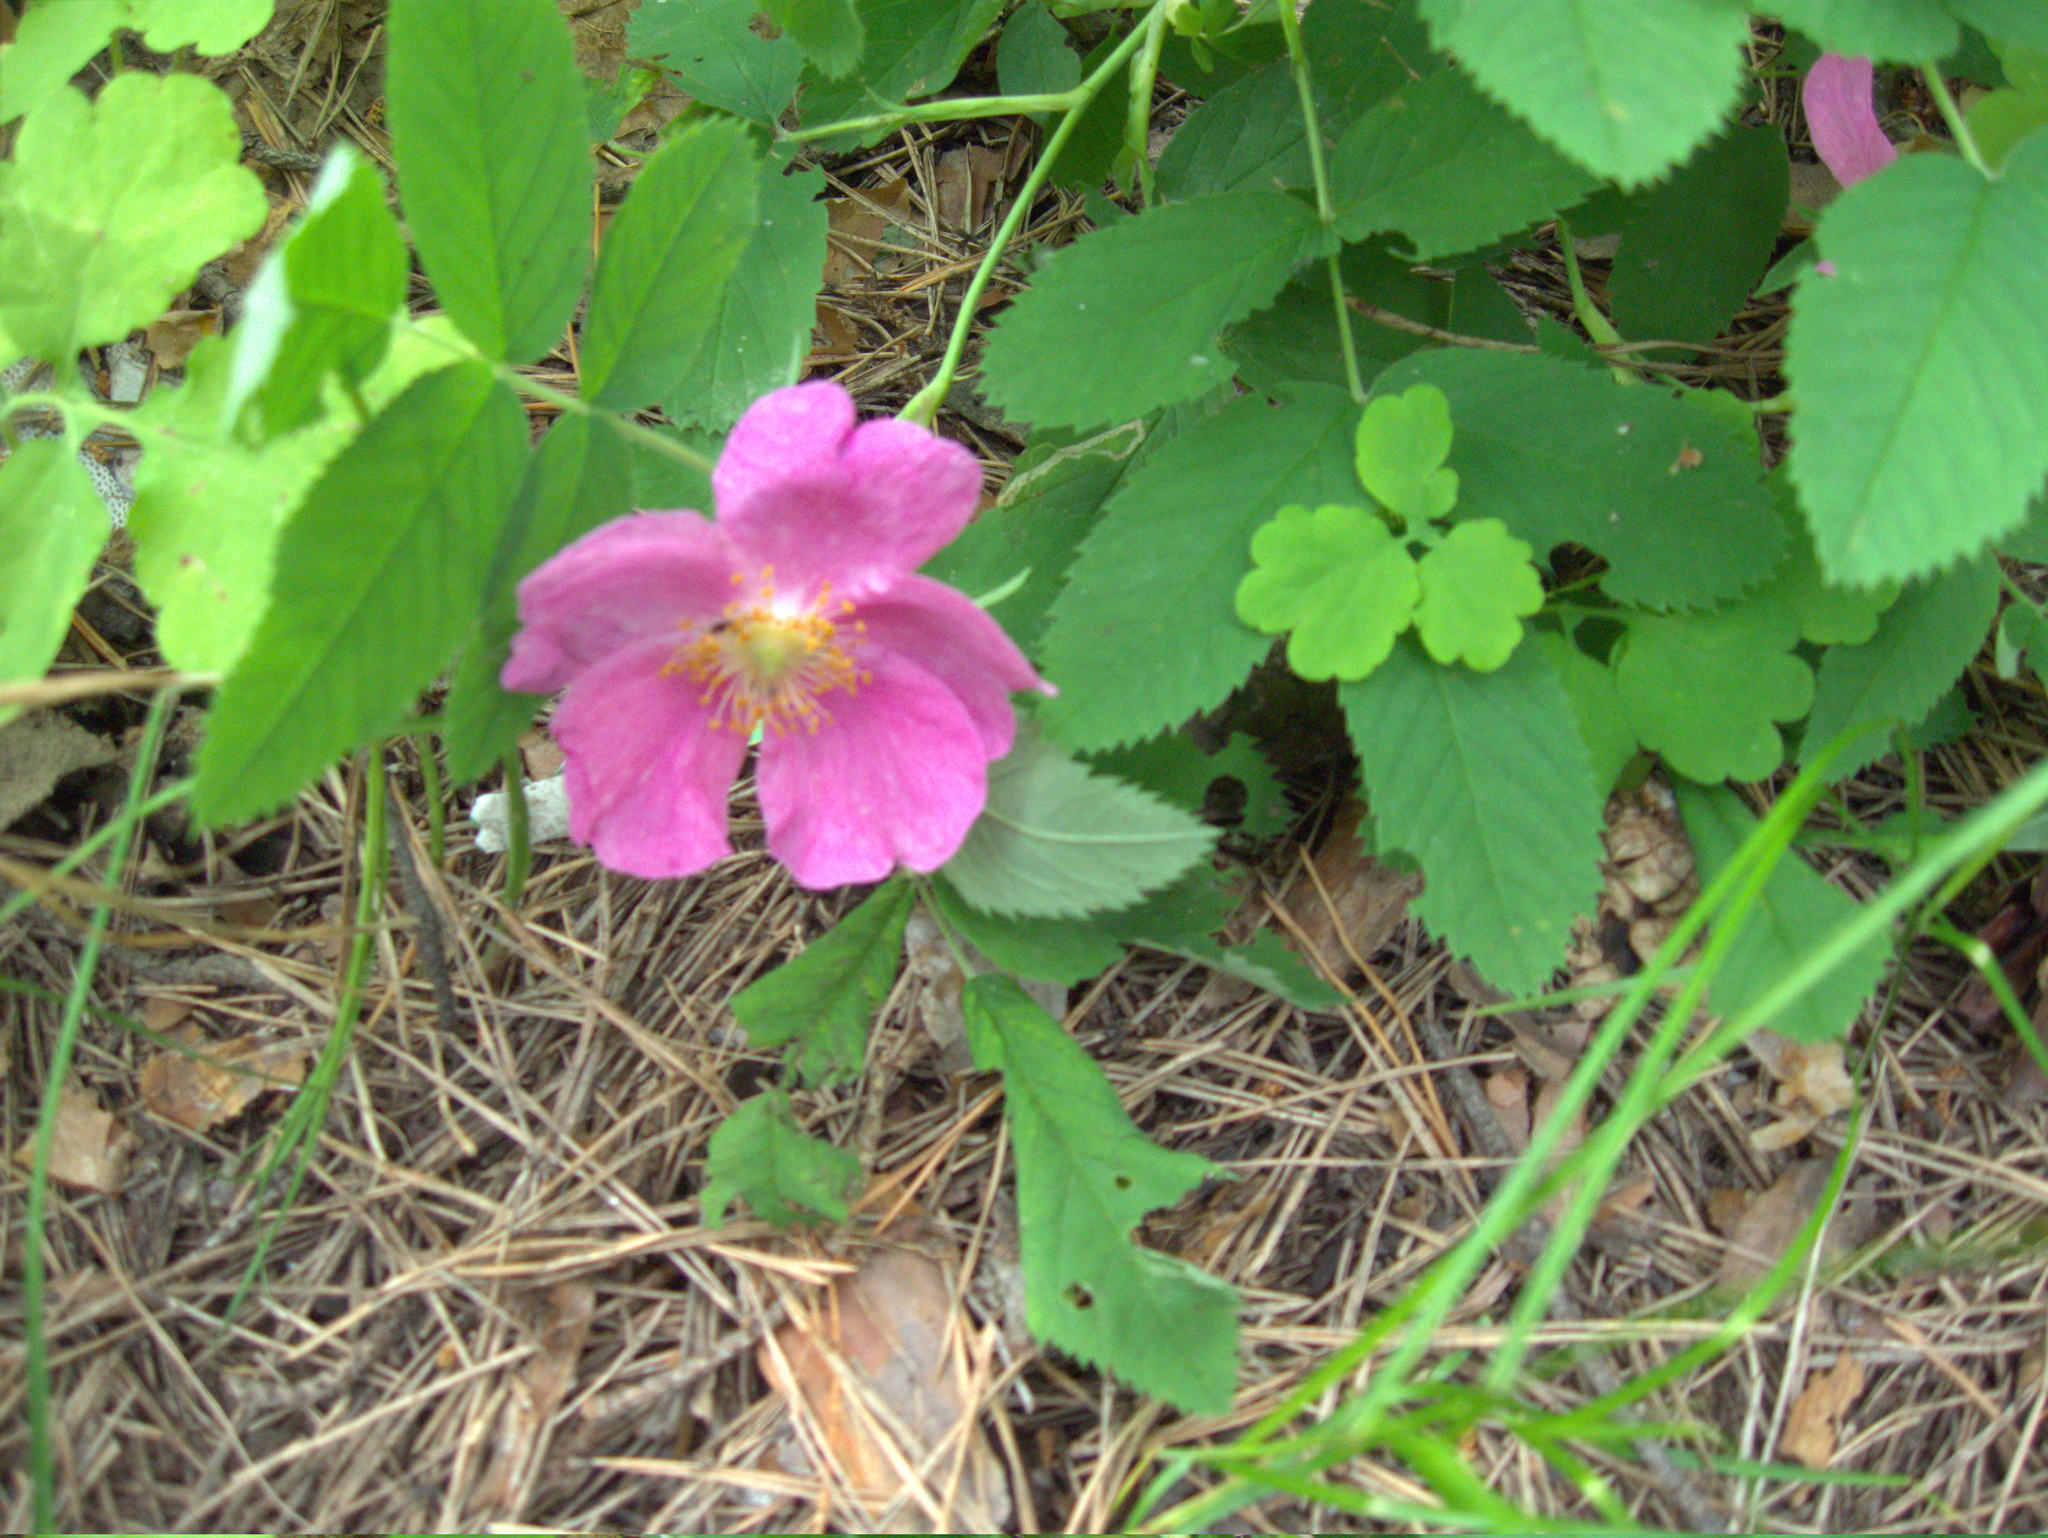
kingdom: Plantae
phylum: Tracheophyta
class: Magnoliopsida
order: Rosales
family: Rosaceae
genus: Rosa
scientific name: Rosa
